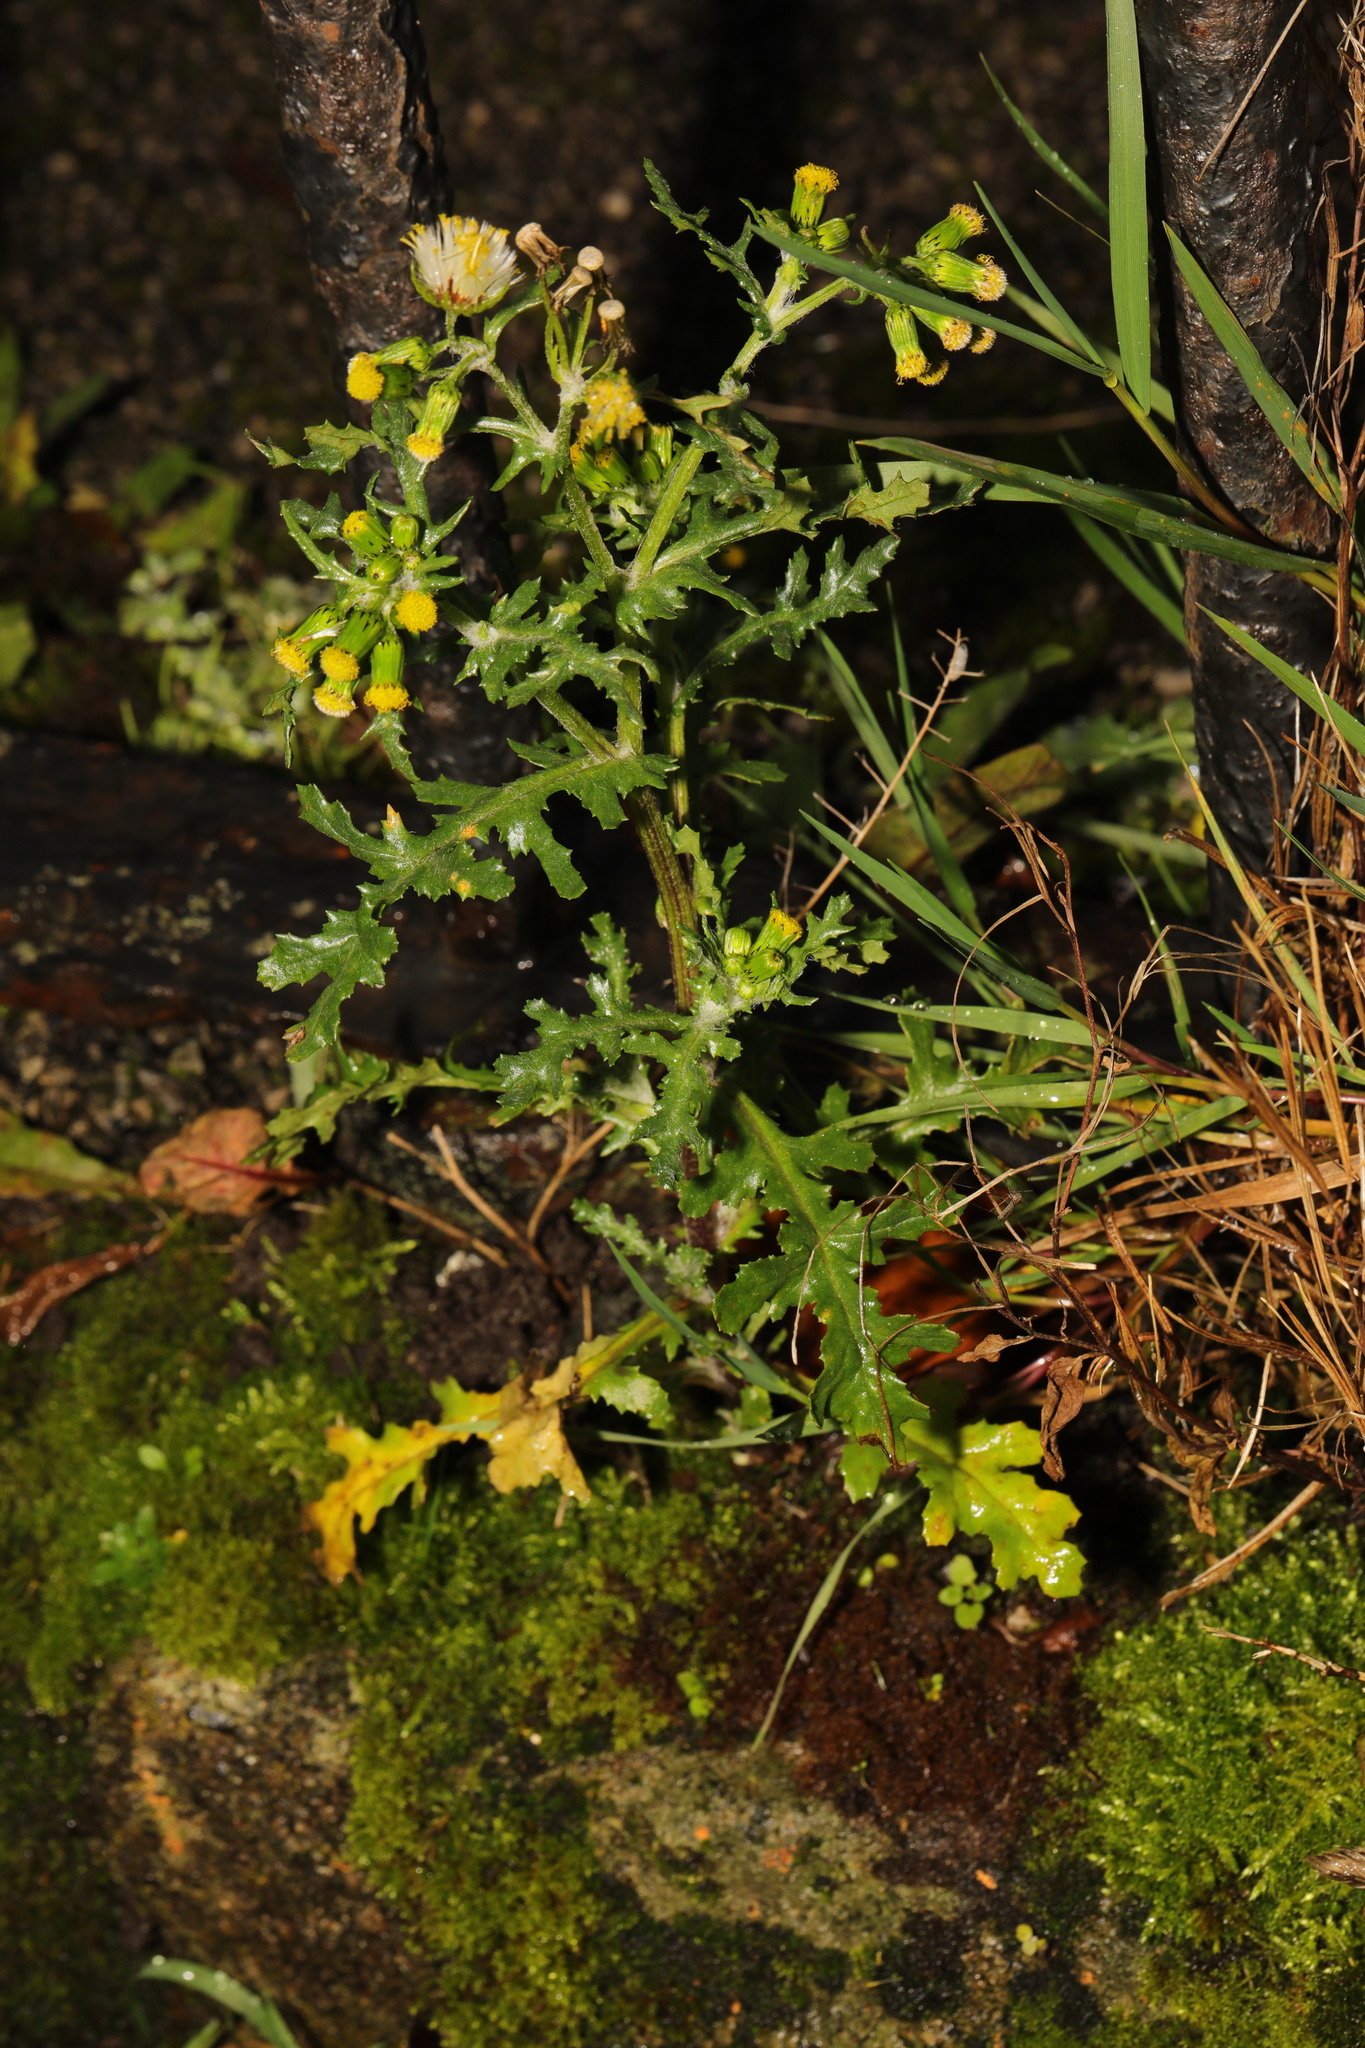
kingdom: Plantae
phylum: Tracheophyta
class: Magnoliopsida
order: Asterales
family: Asteraceae
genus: Senecio
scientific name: Senecio vulgaris
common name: Old-man-in-the-spring
